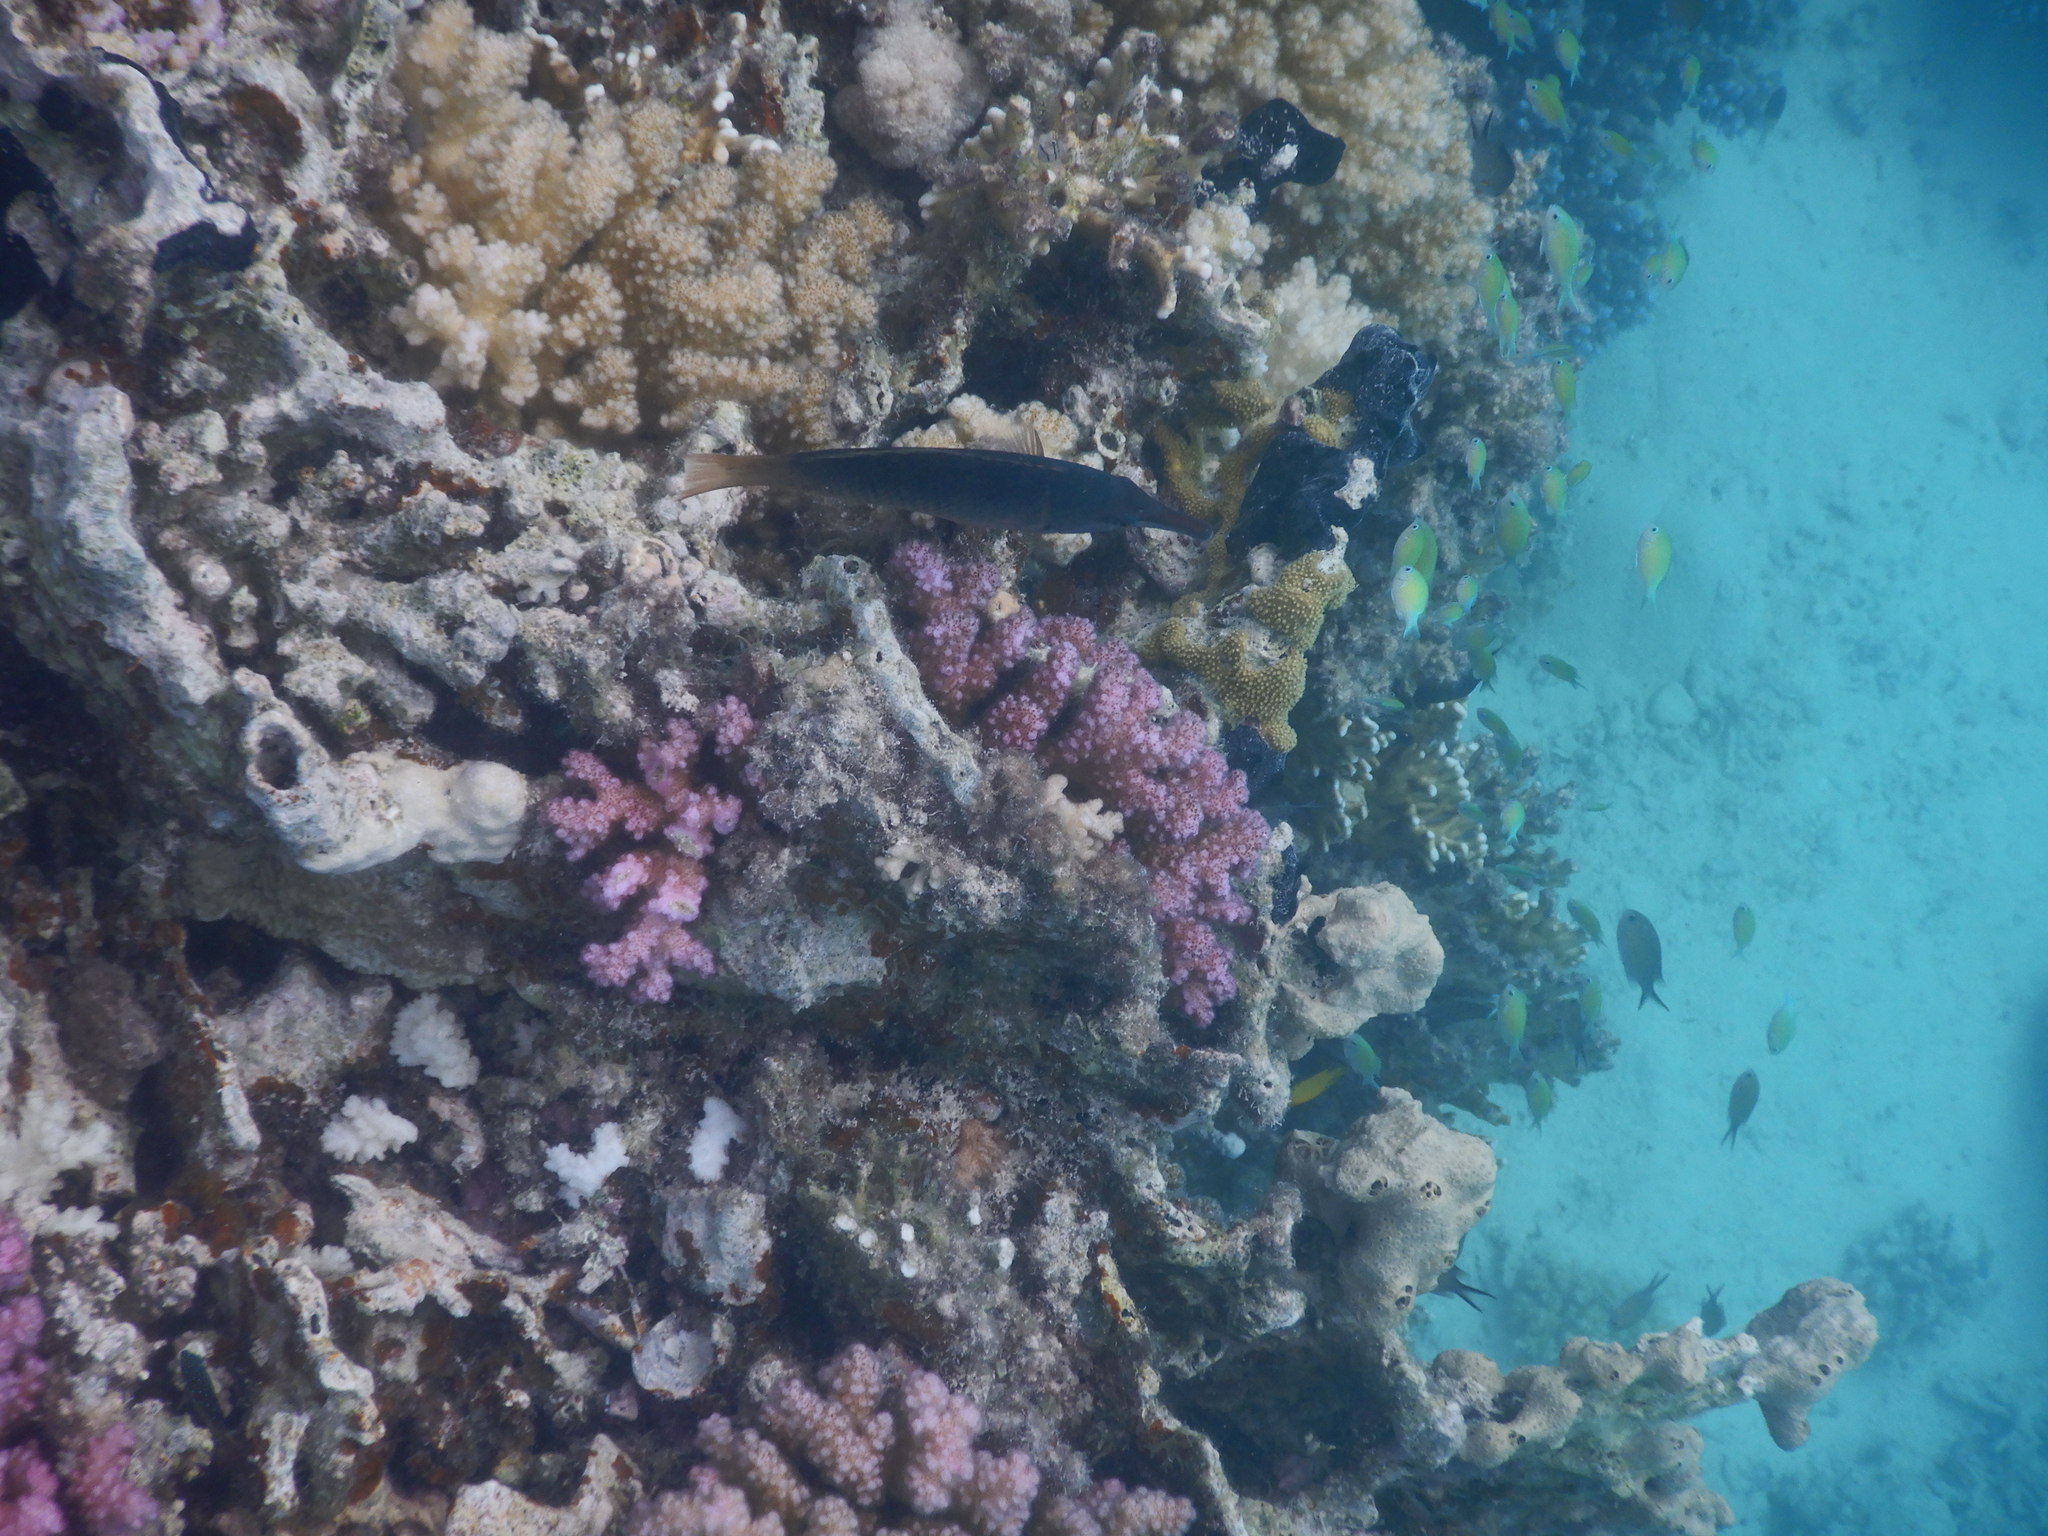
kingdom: Animalia
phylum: Chordata
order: Perciformes
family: Labridae
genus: Gomphosus
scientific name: Gomphosus klunzingeri
